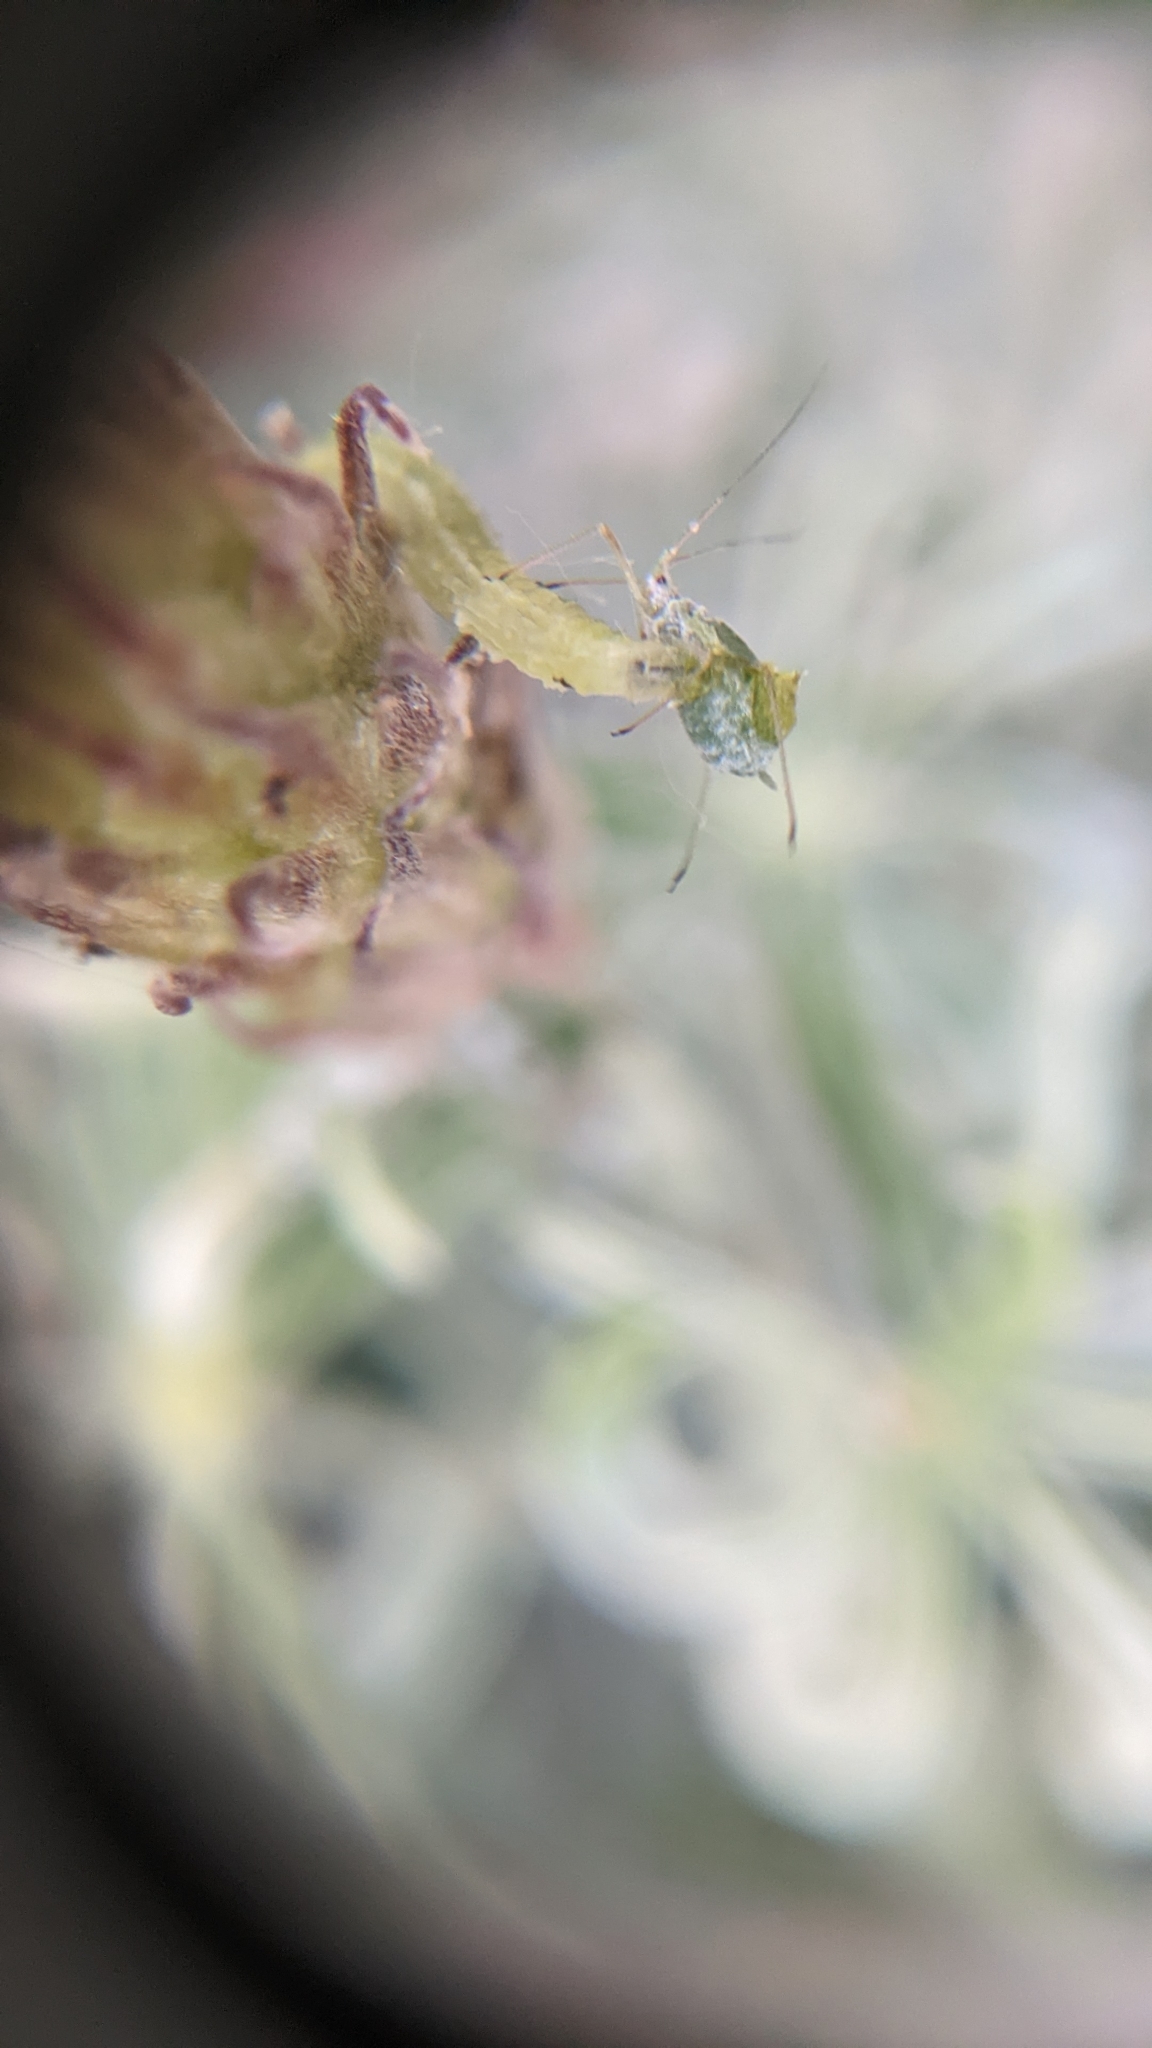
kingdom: Animalia
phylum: Arthropoda
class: Insecta
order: Diptera
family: Syrphidae
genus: Scaeva
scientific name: Scaeva affinis
